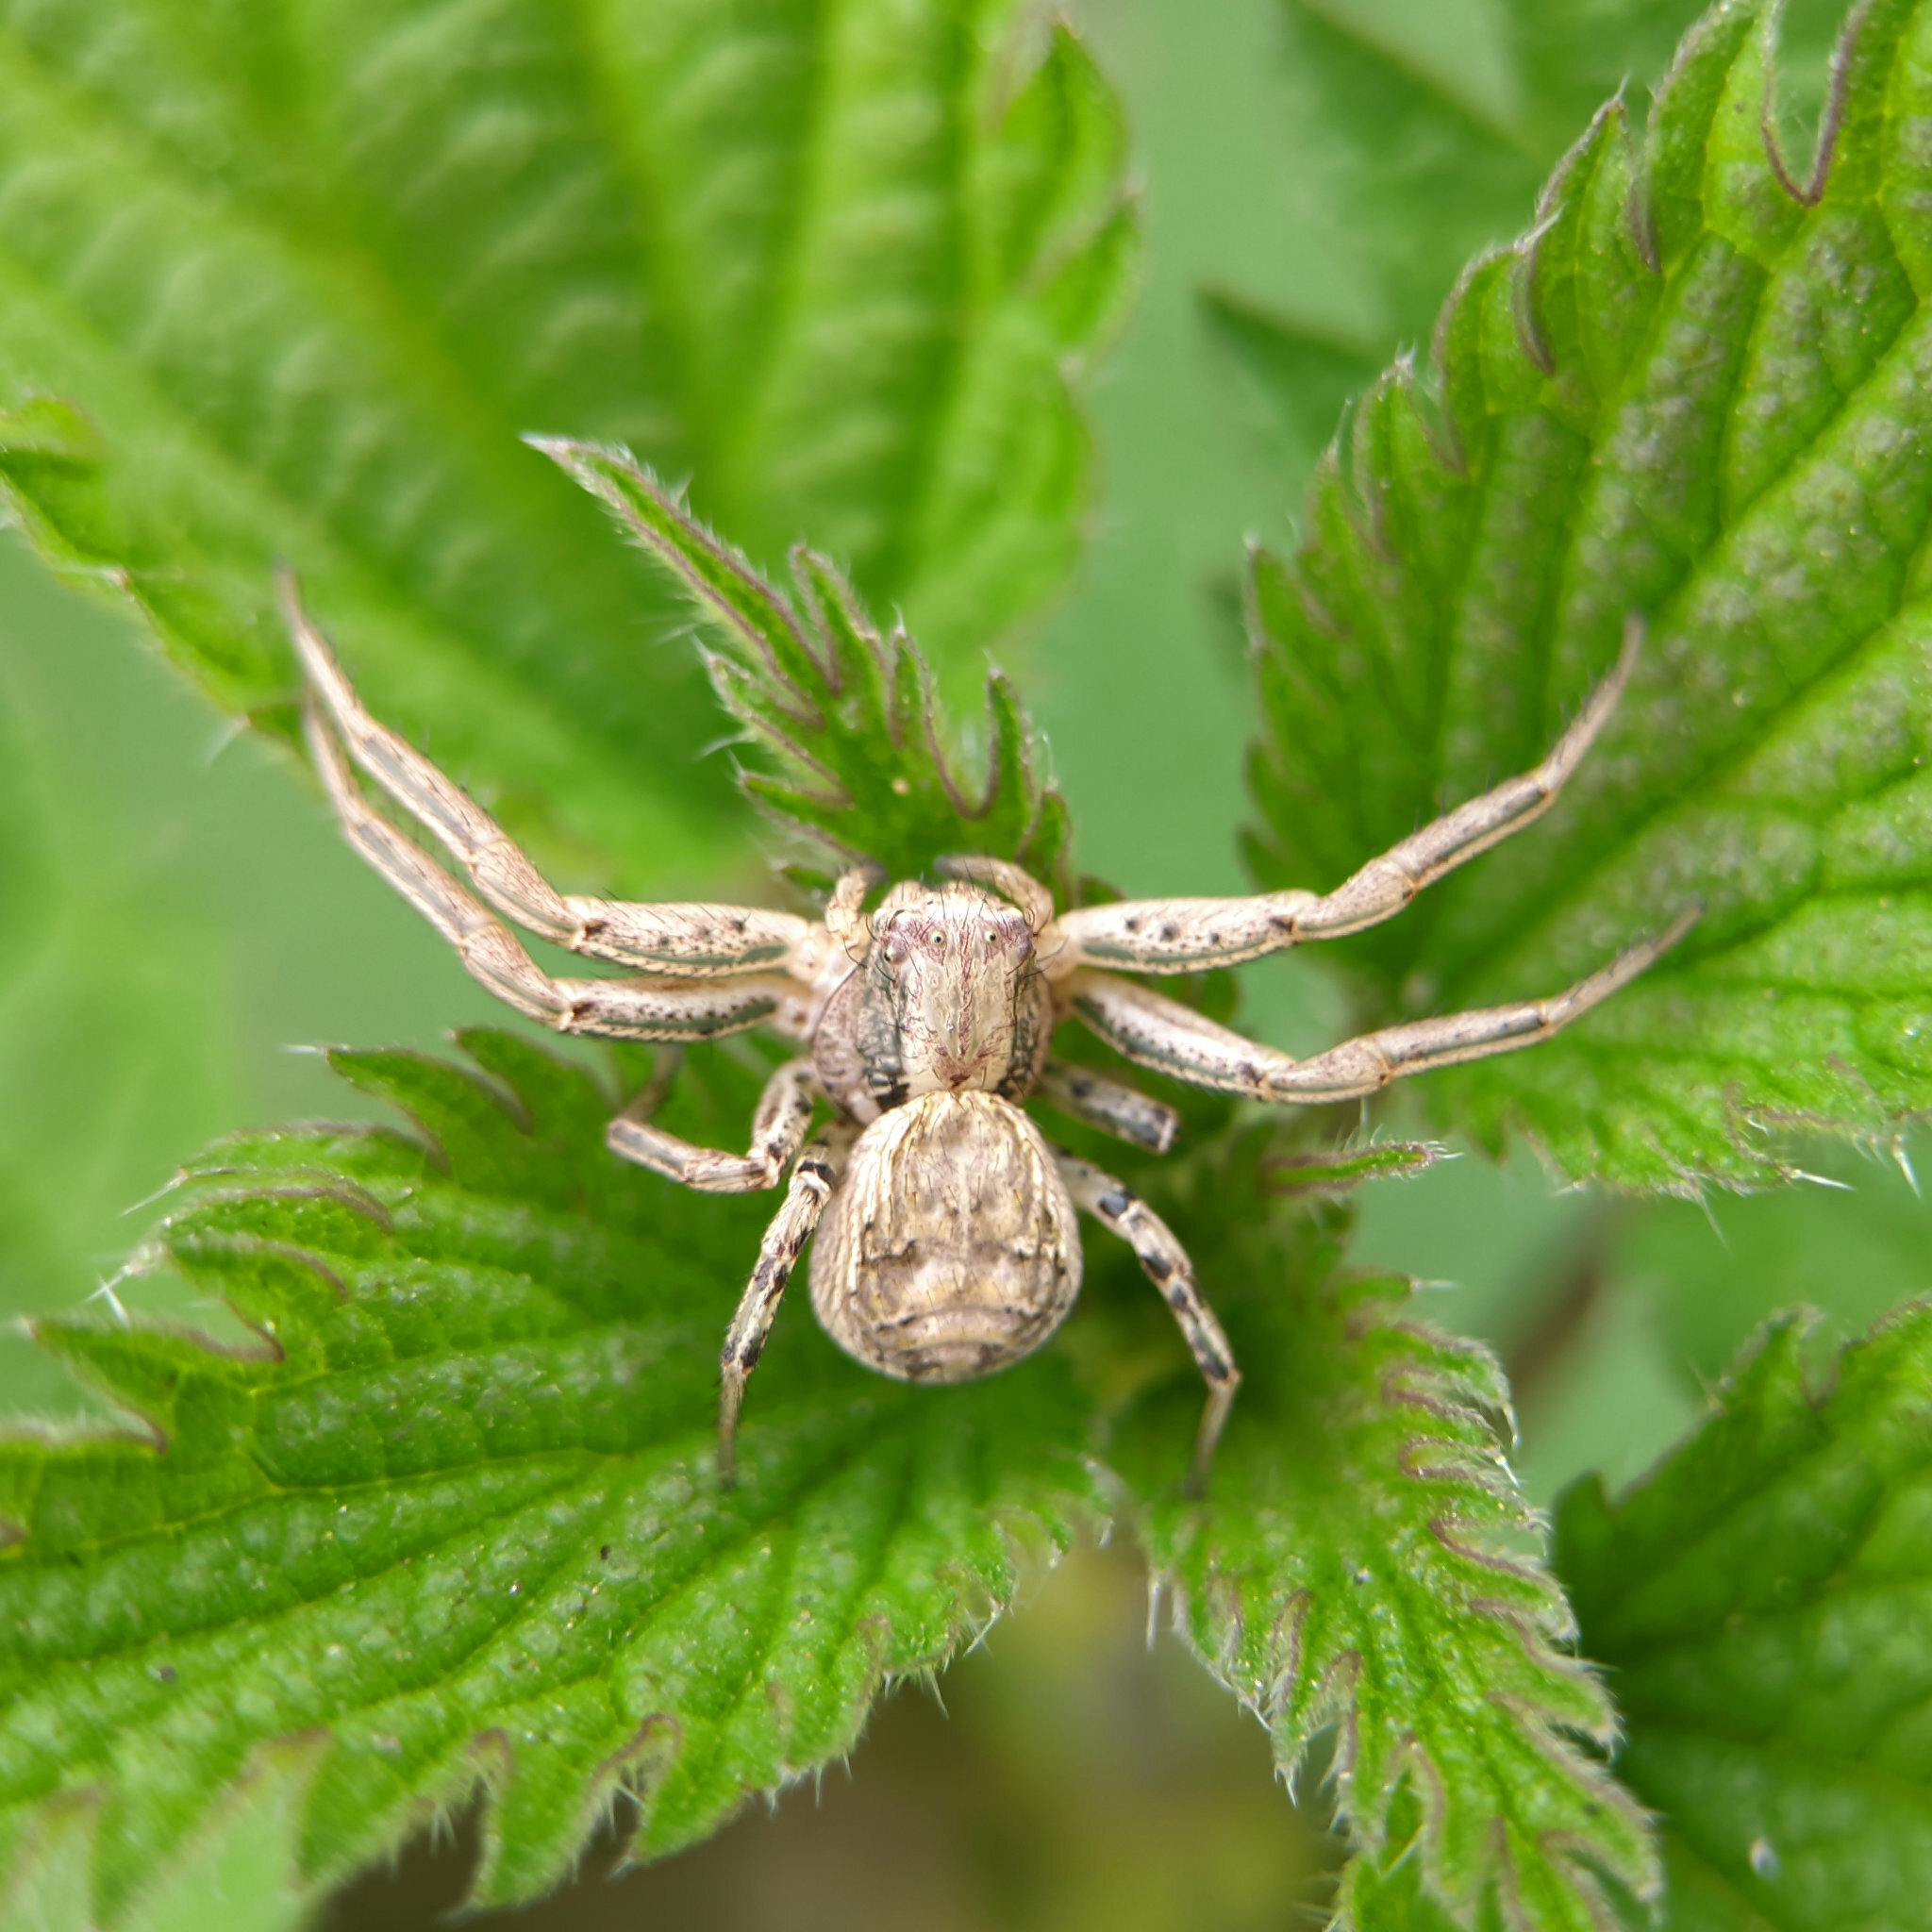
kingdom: Animalia
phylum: Arthropoda
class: Arachnida
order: Araneae
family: Thomisidae
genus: Xysticus
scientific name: Xysticus
